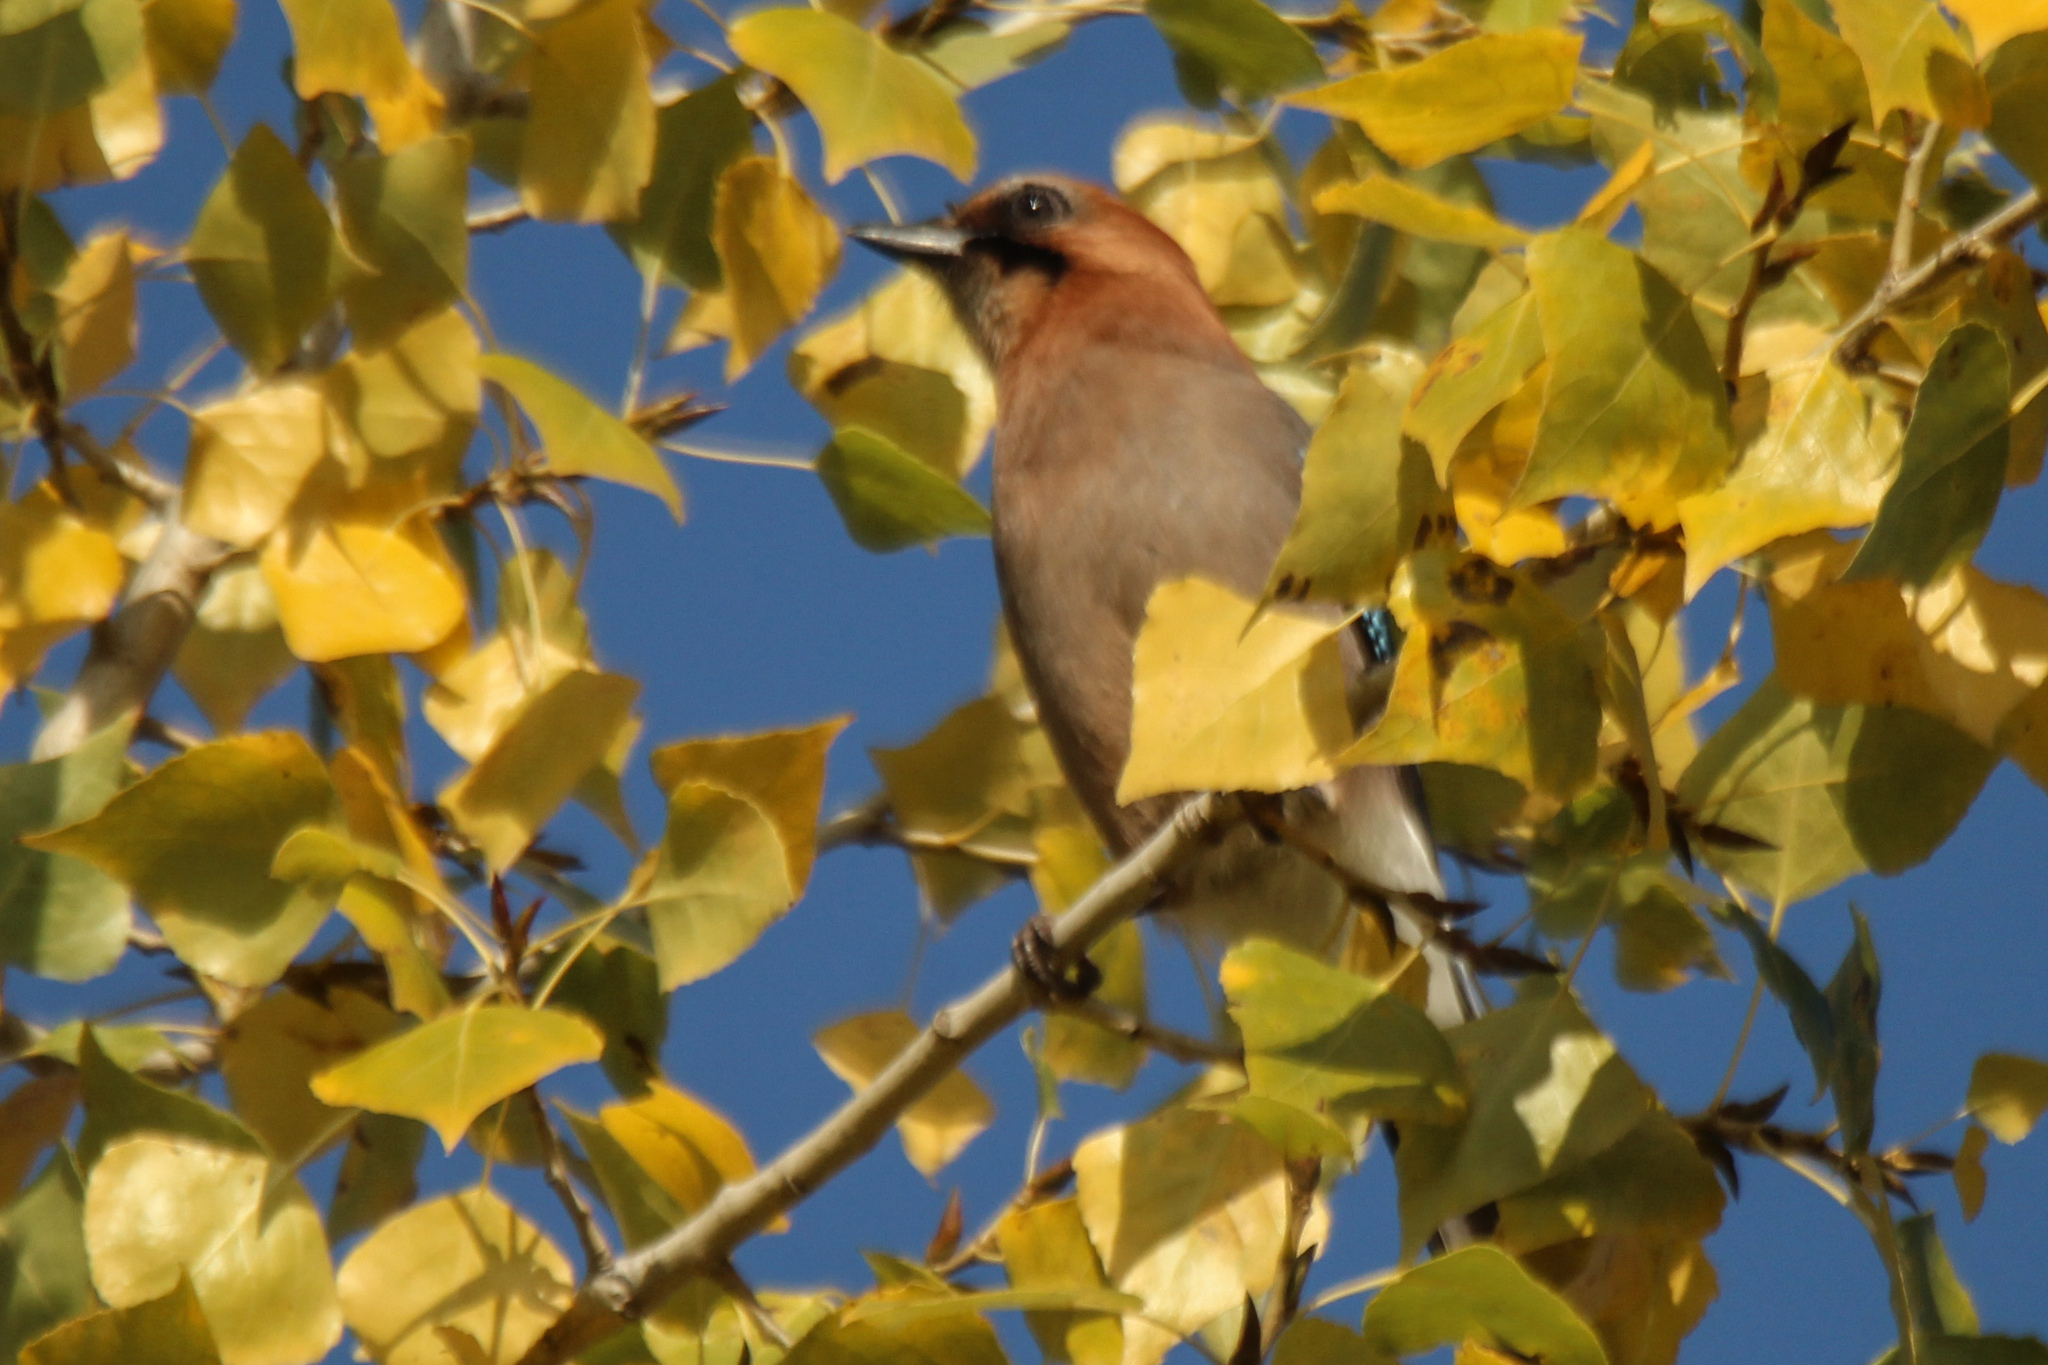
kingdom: Animalia
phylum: Chordata
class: Aves
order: Passeriformes
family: Corvidae
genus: Garrulus
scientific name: Garrulus glandarius
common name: Eurasian jay
